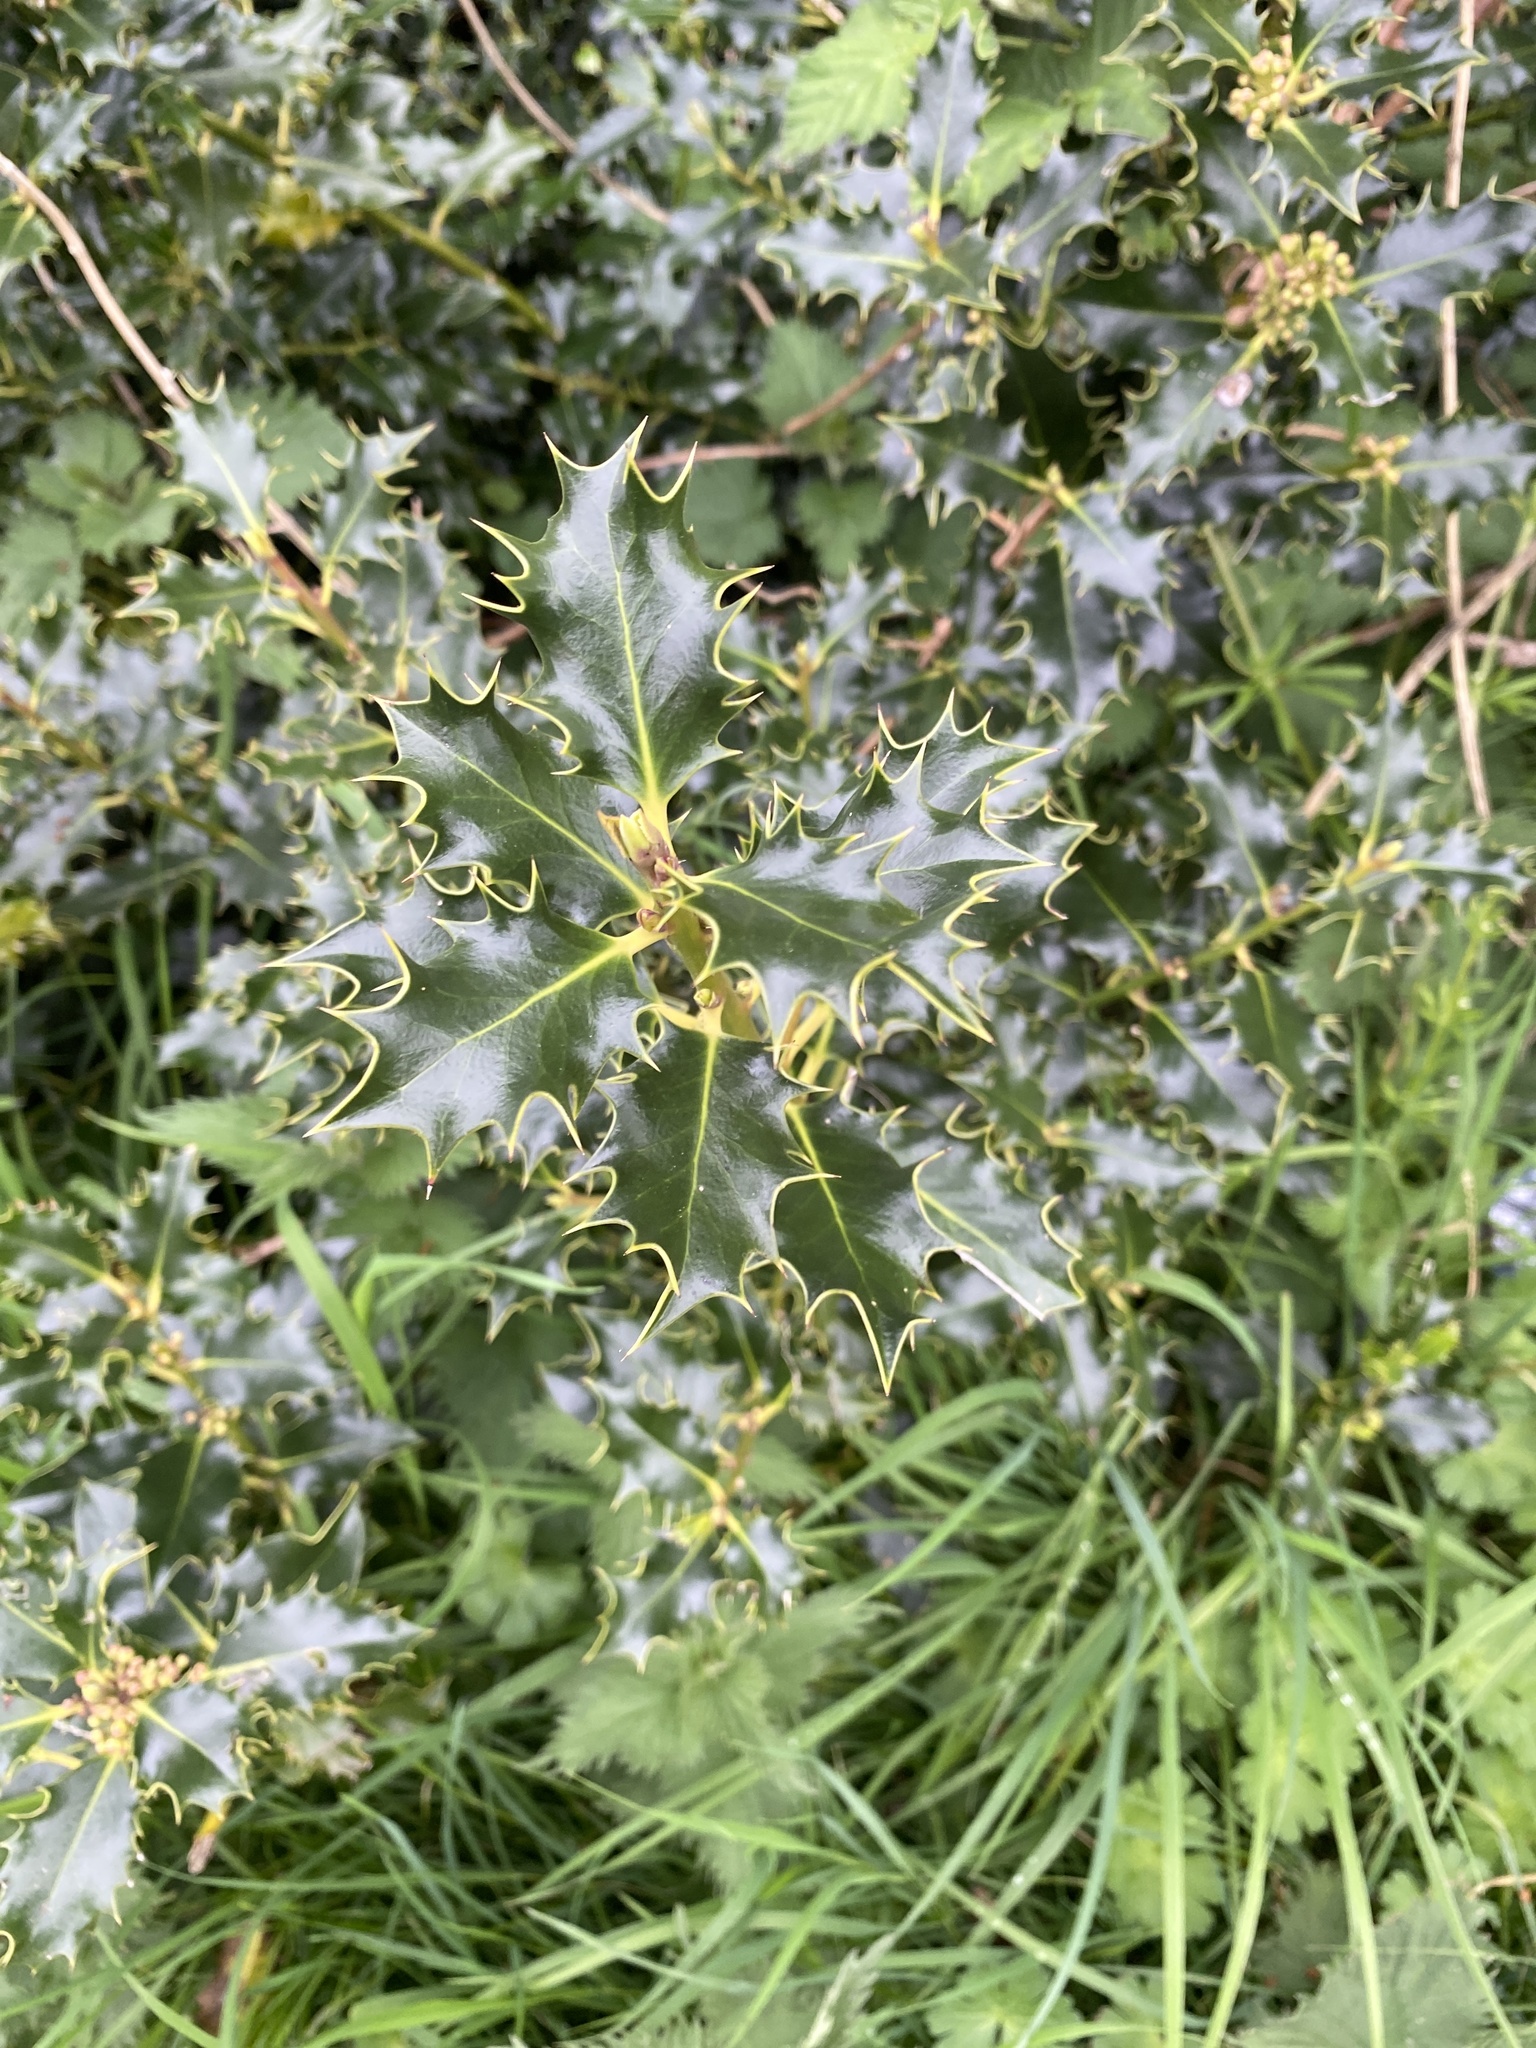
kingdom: Plantae
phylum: Tracheophyta
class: Magnoliopsida
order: Aquifoliales
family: Aquifoliaceae
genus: Ilex
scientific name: Ilex aquifolium
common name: English holly
